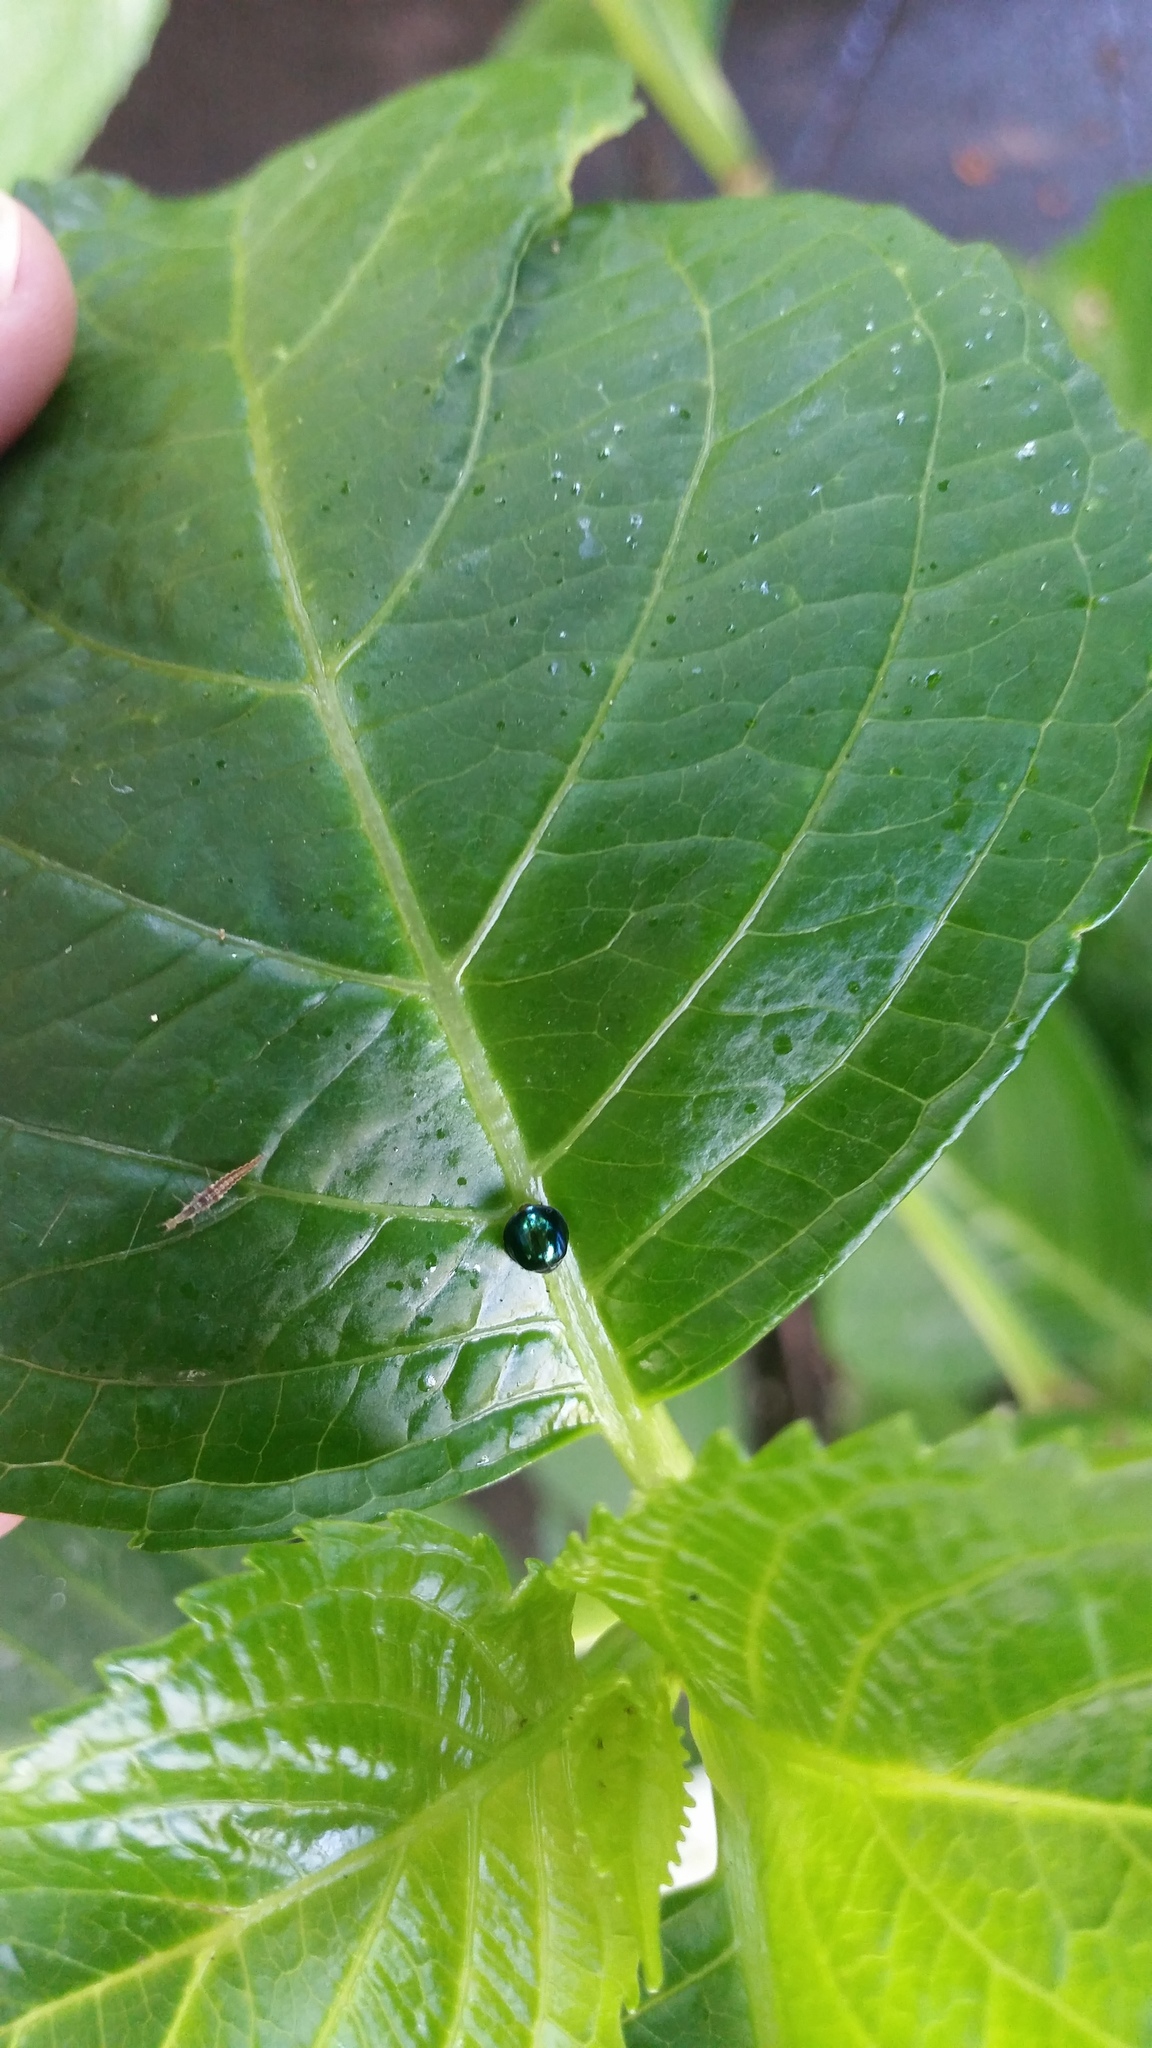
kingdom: Animalia
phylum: Arthropoda
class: Insecta
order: Coleoptera
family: Coccinellidae
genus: Halmus
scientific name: Halmus chalybeus
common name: Steel blue ladybird beetle
